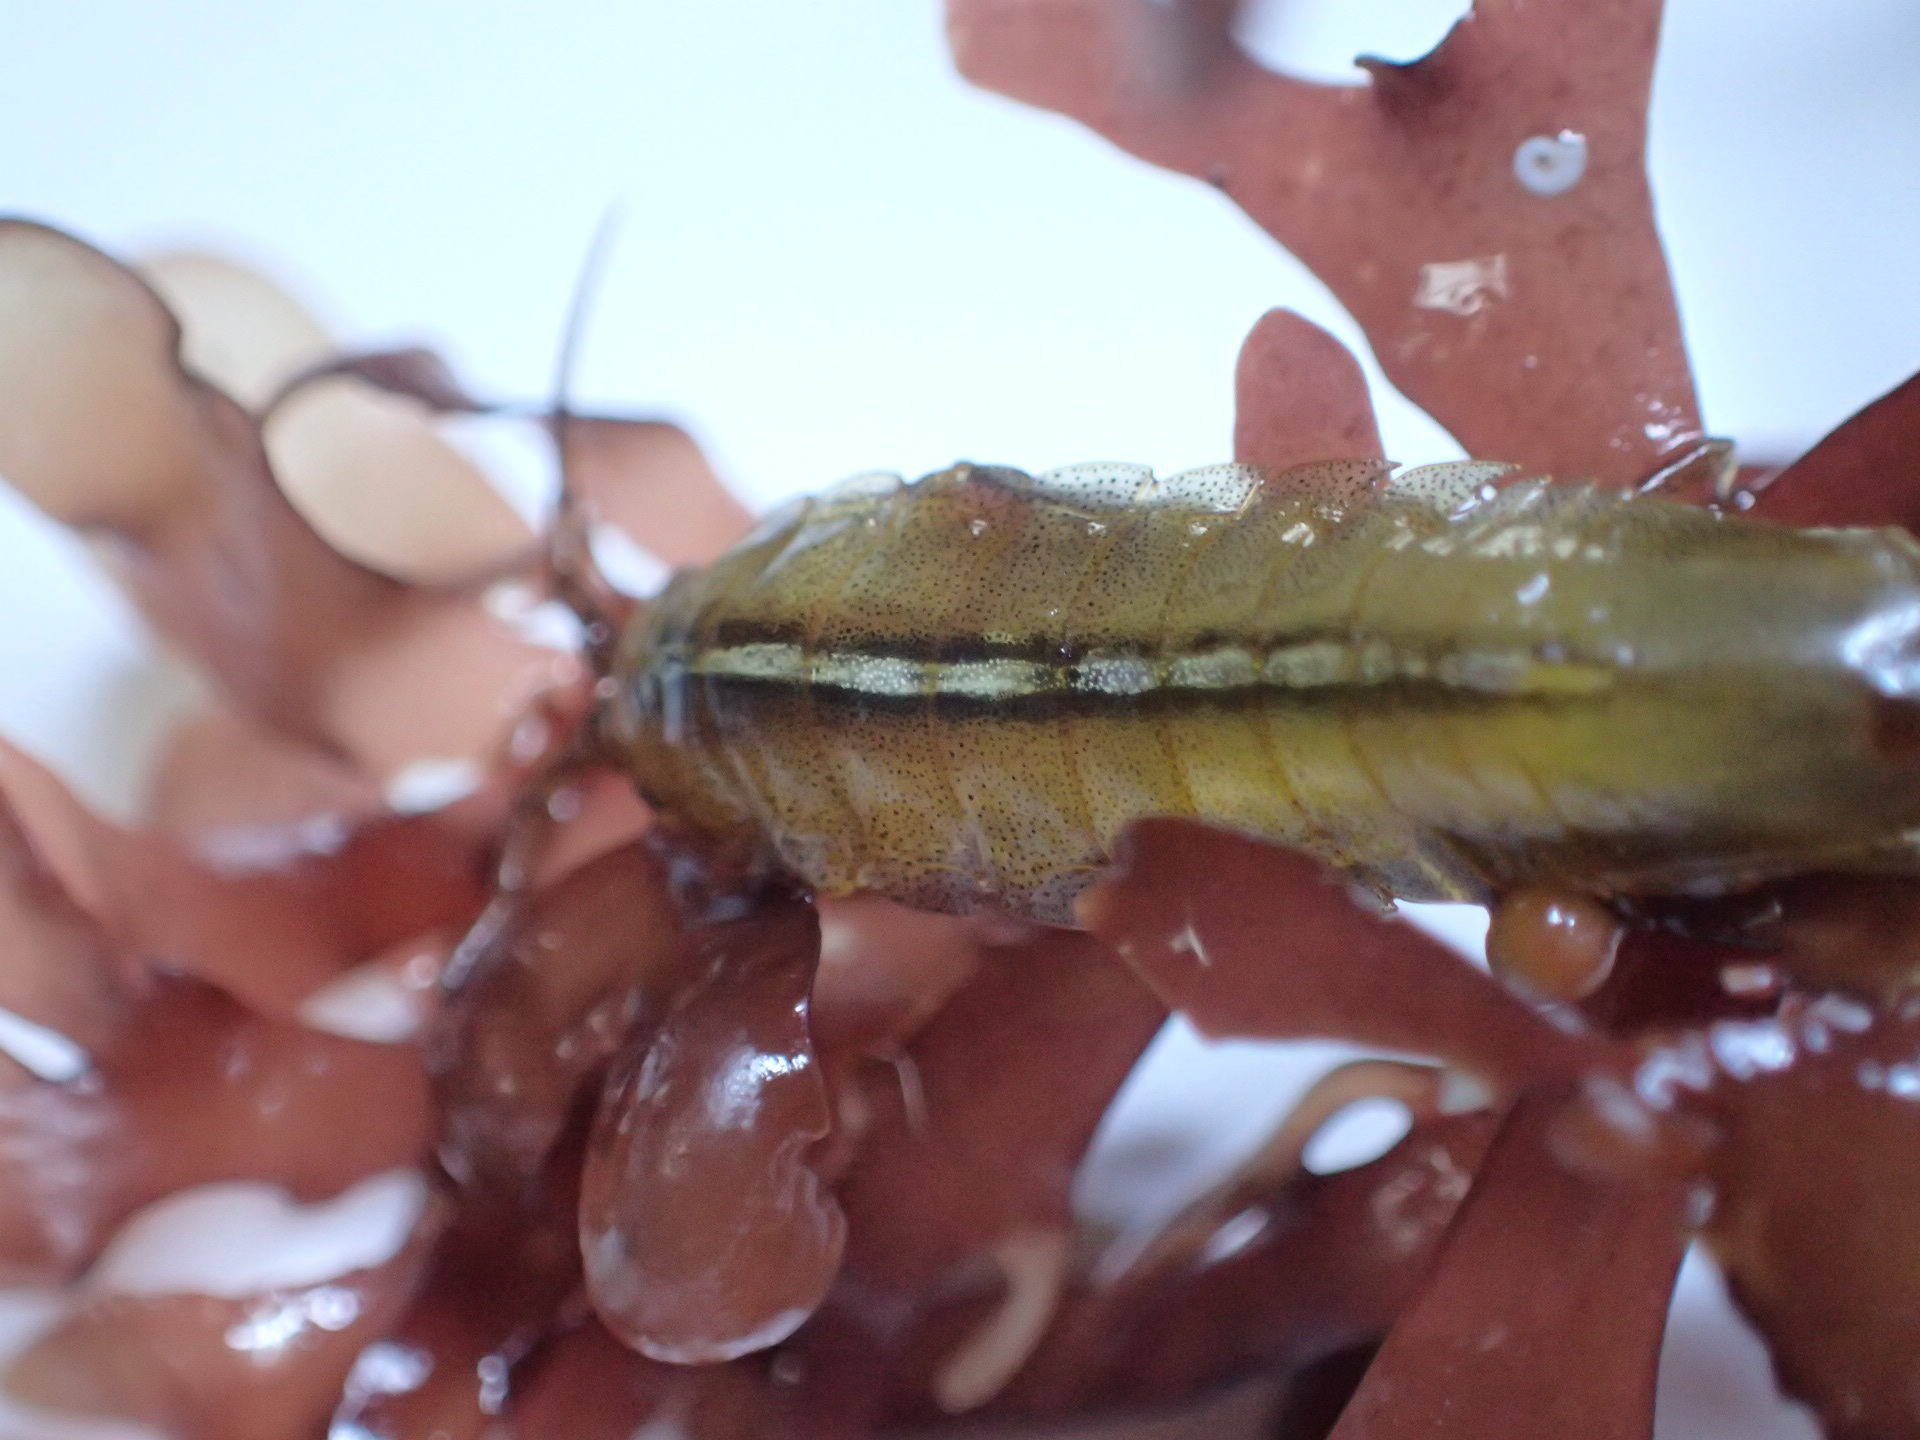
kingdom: Animalia
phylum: Arthropoda
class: Malacostraca
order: Isopoda
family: Idoteidae
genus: Idotea
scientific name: Idotea balthica
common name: Baltic isopod
